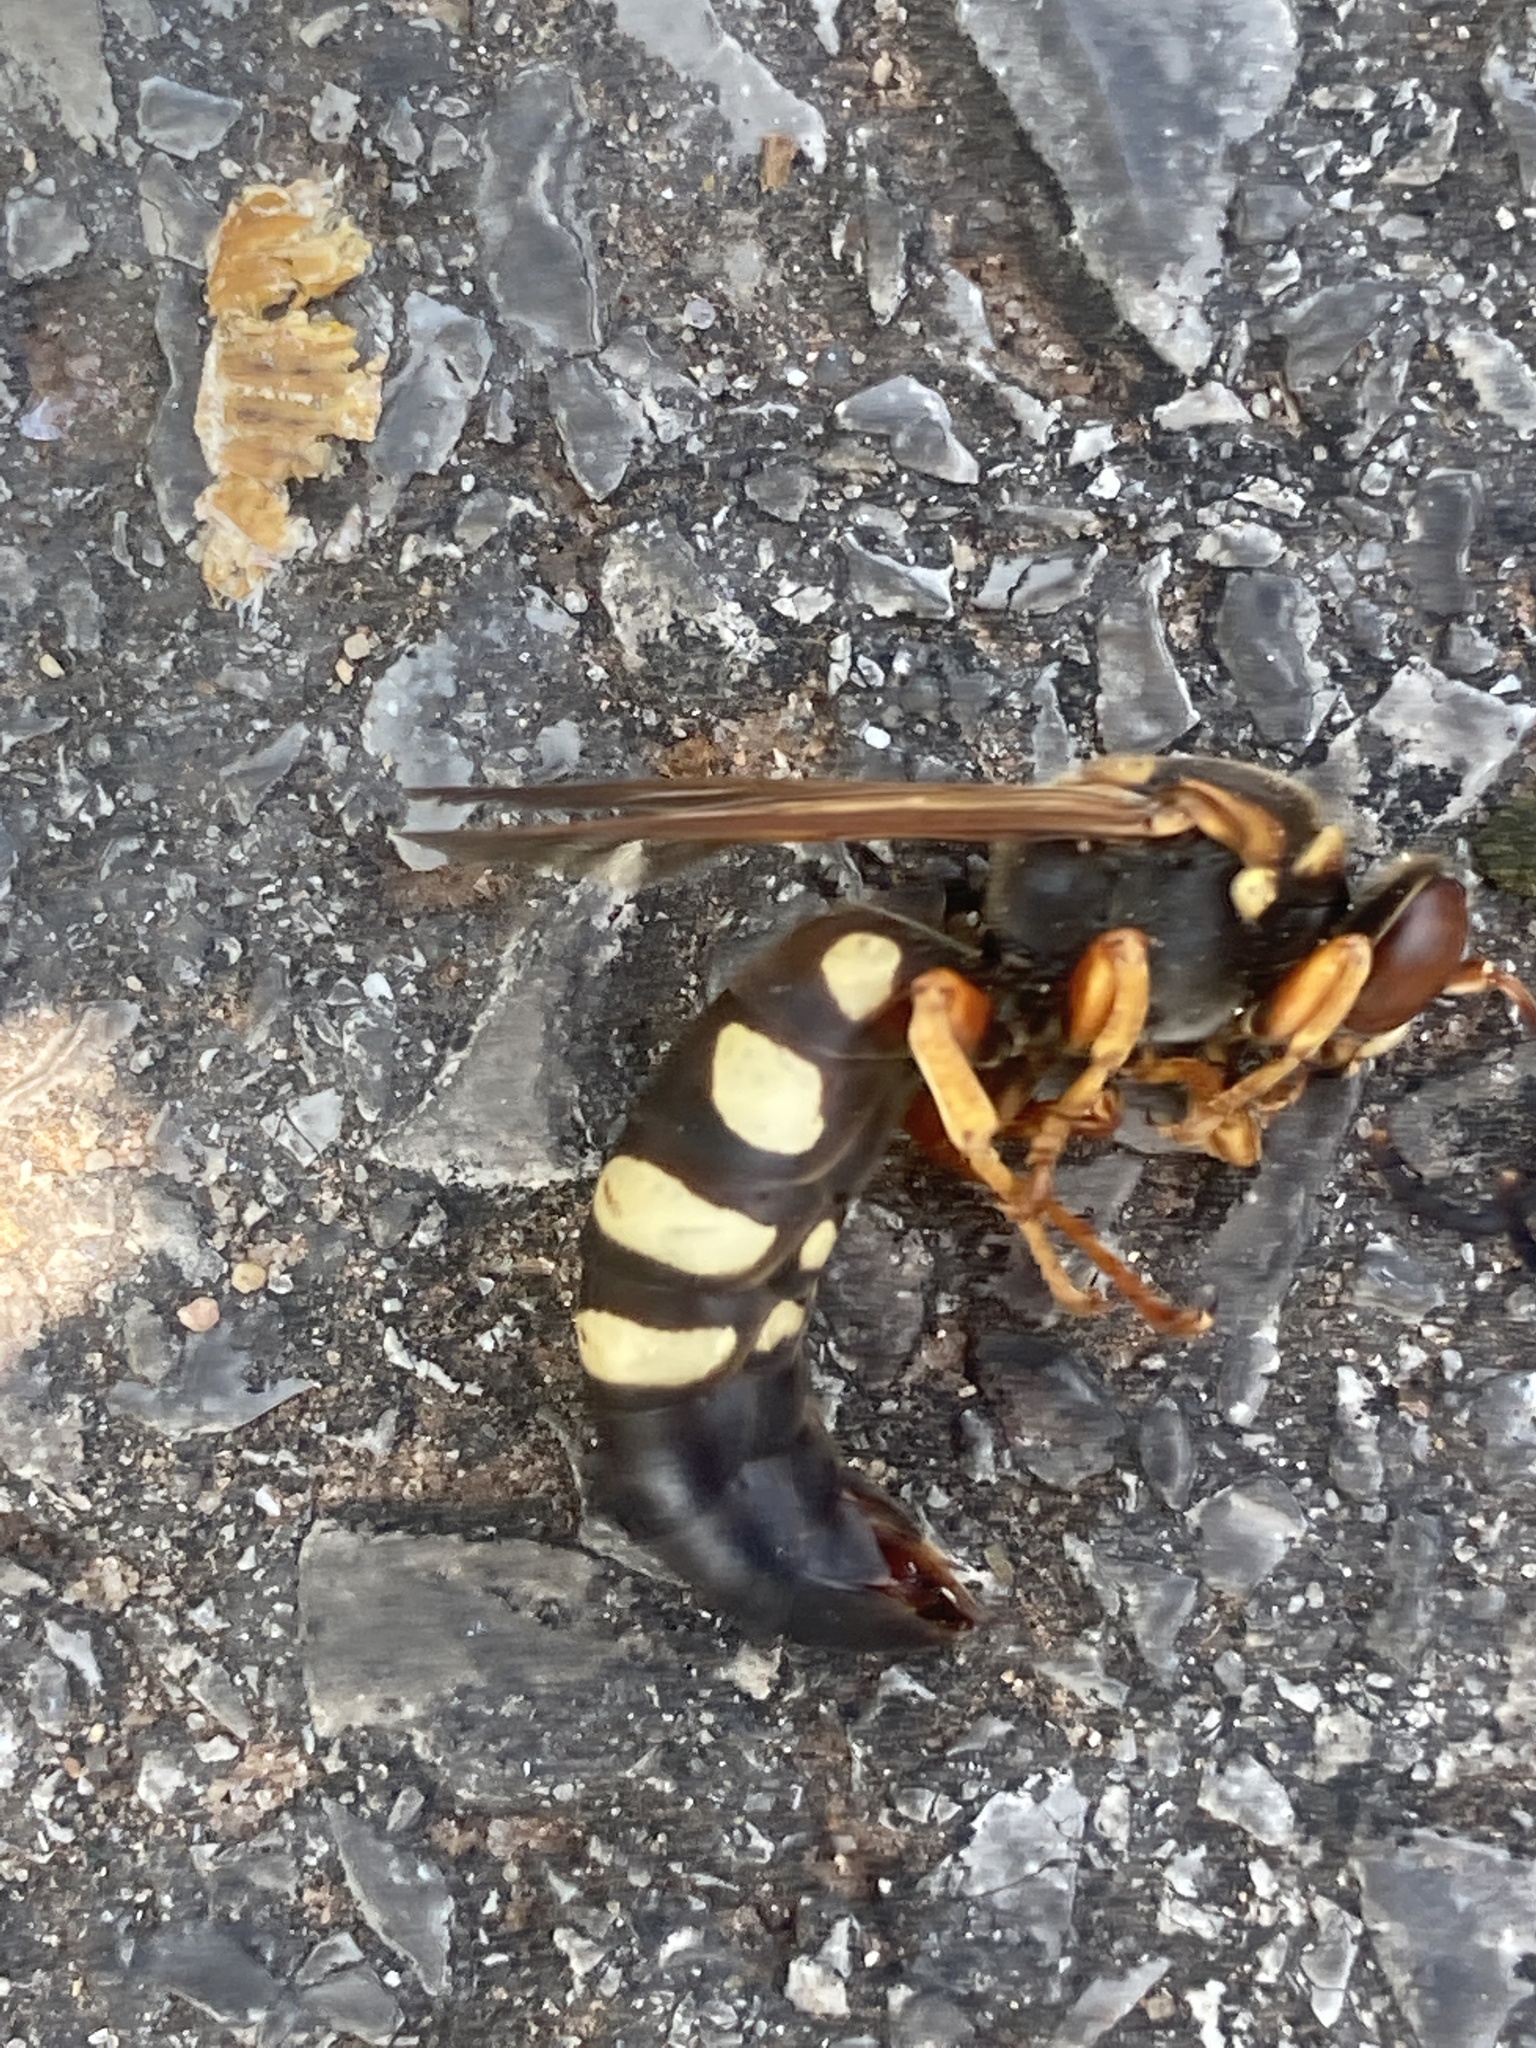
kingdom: Animalia
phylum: Arthropoda
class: Insecta
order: Hymenoptera
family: Crabronidae
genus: Stizus
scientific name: Stizus brevipennis
